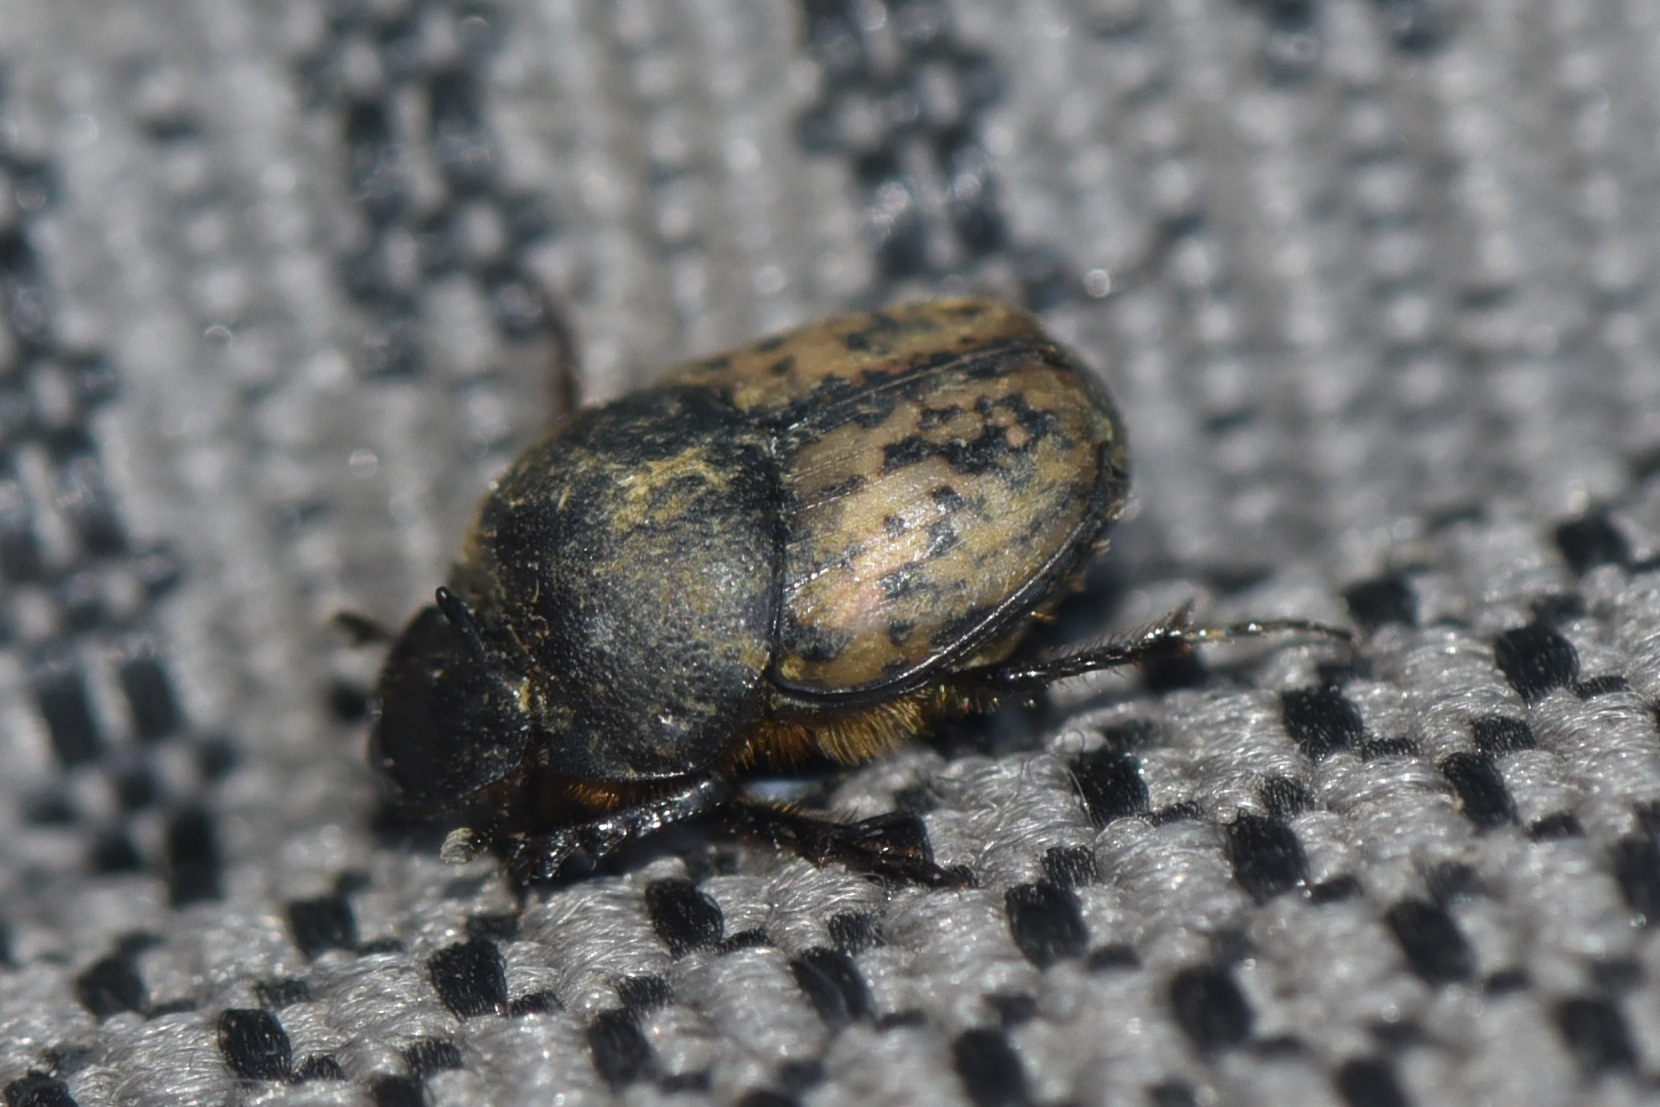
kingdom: Animalia
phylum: Arthropoda
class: Insecta
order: Coleoptera
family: Scarabaeidae
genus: Onthophagus
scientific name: Onthophagus nuchicornis
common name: Mottled dung beetle
